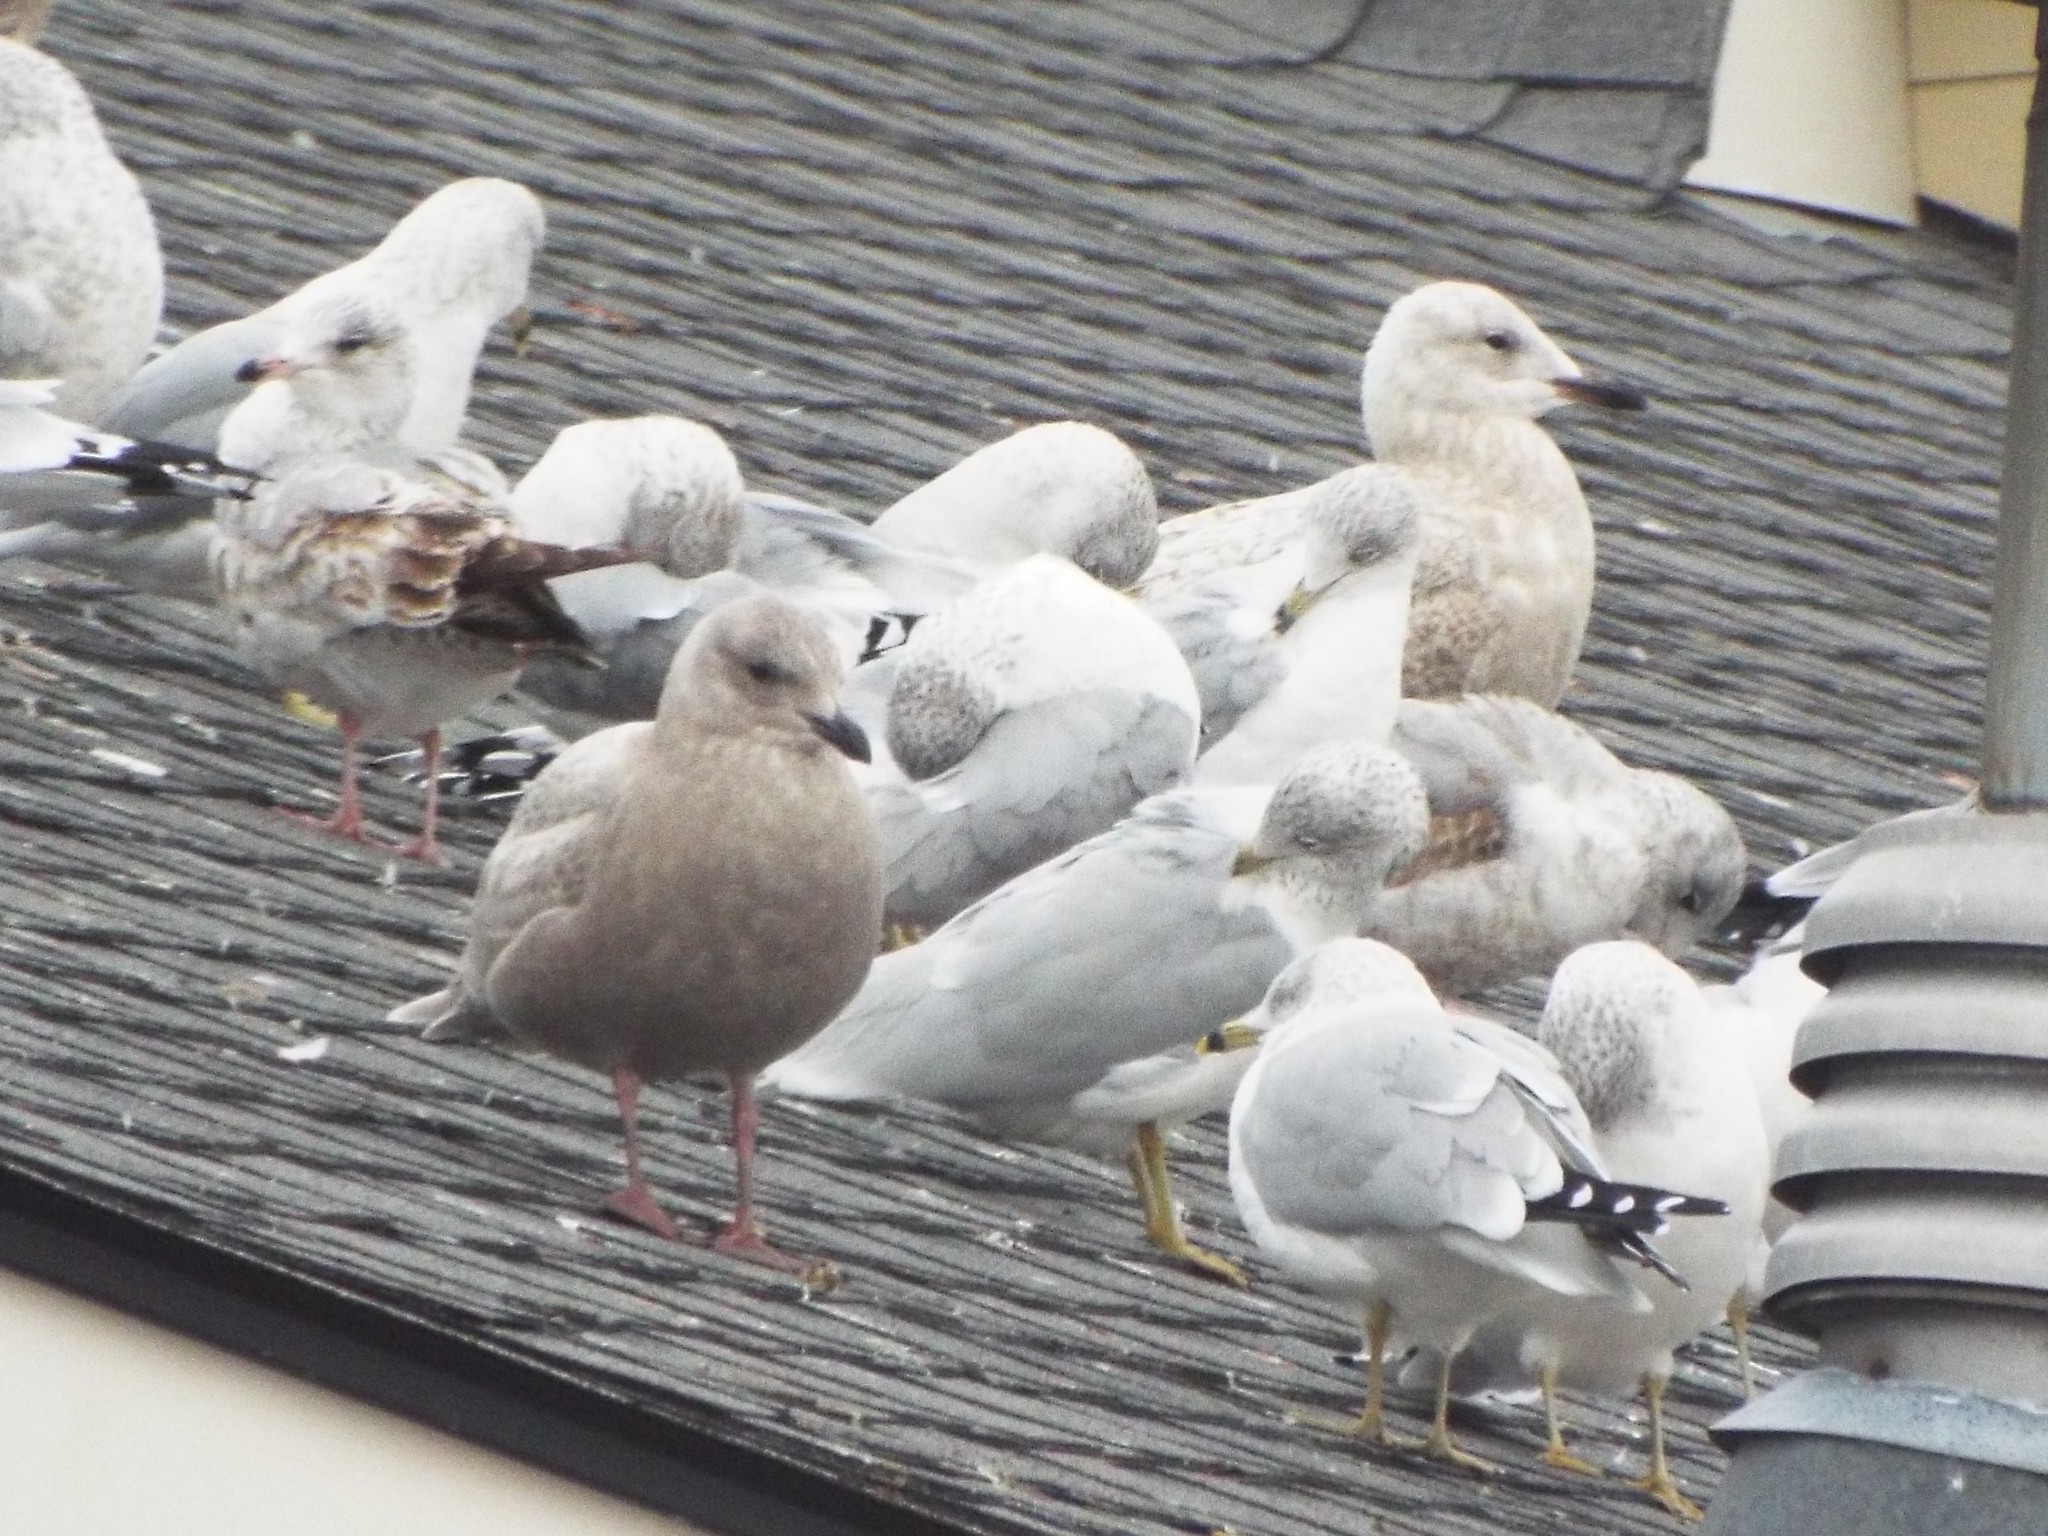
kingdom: Animalia
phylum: Chordata
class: Aves
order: Charadriiformes
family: Laridae
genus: Larus
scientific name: Larus glaucoides
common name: Iceland gull
